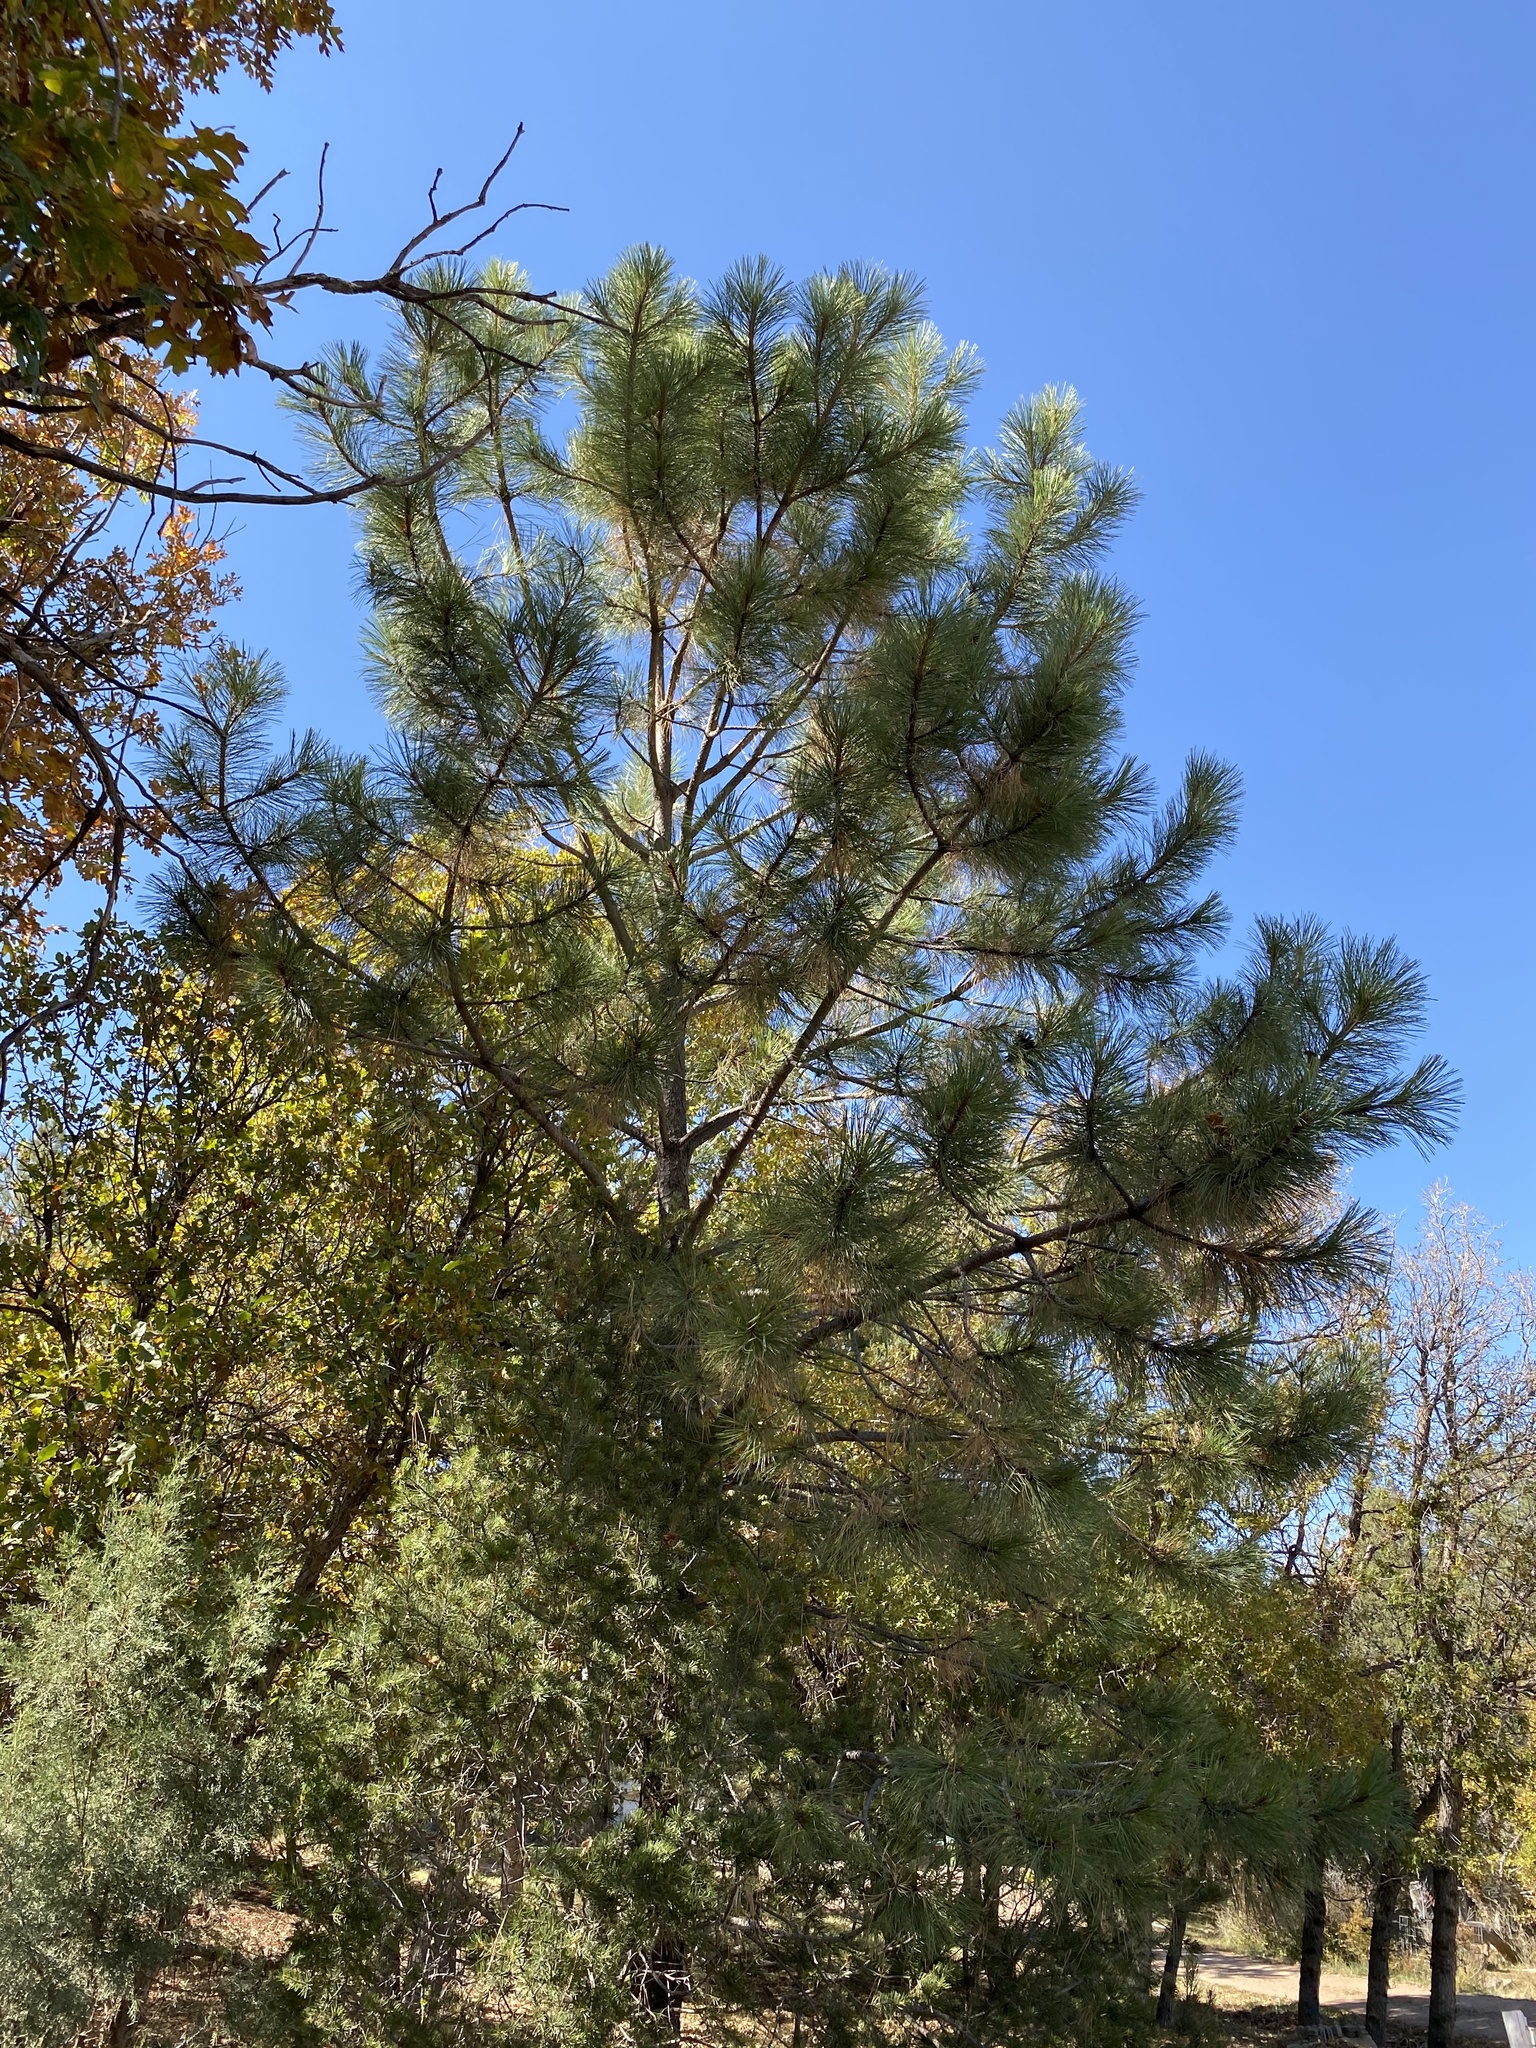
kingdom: Plantae
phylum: Tracheophyta
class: Pinopsida
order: Pinales
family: Pinaceae
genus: Pinus
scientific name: Pinus ponderosa
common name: Western yellow-pine
